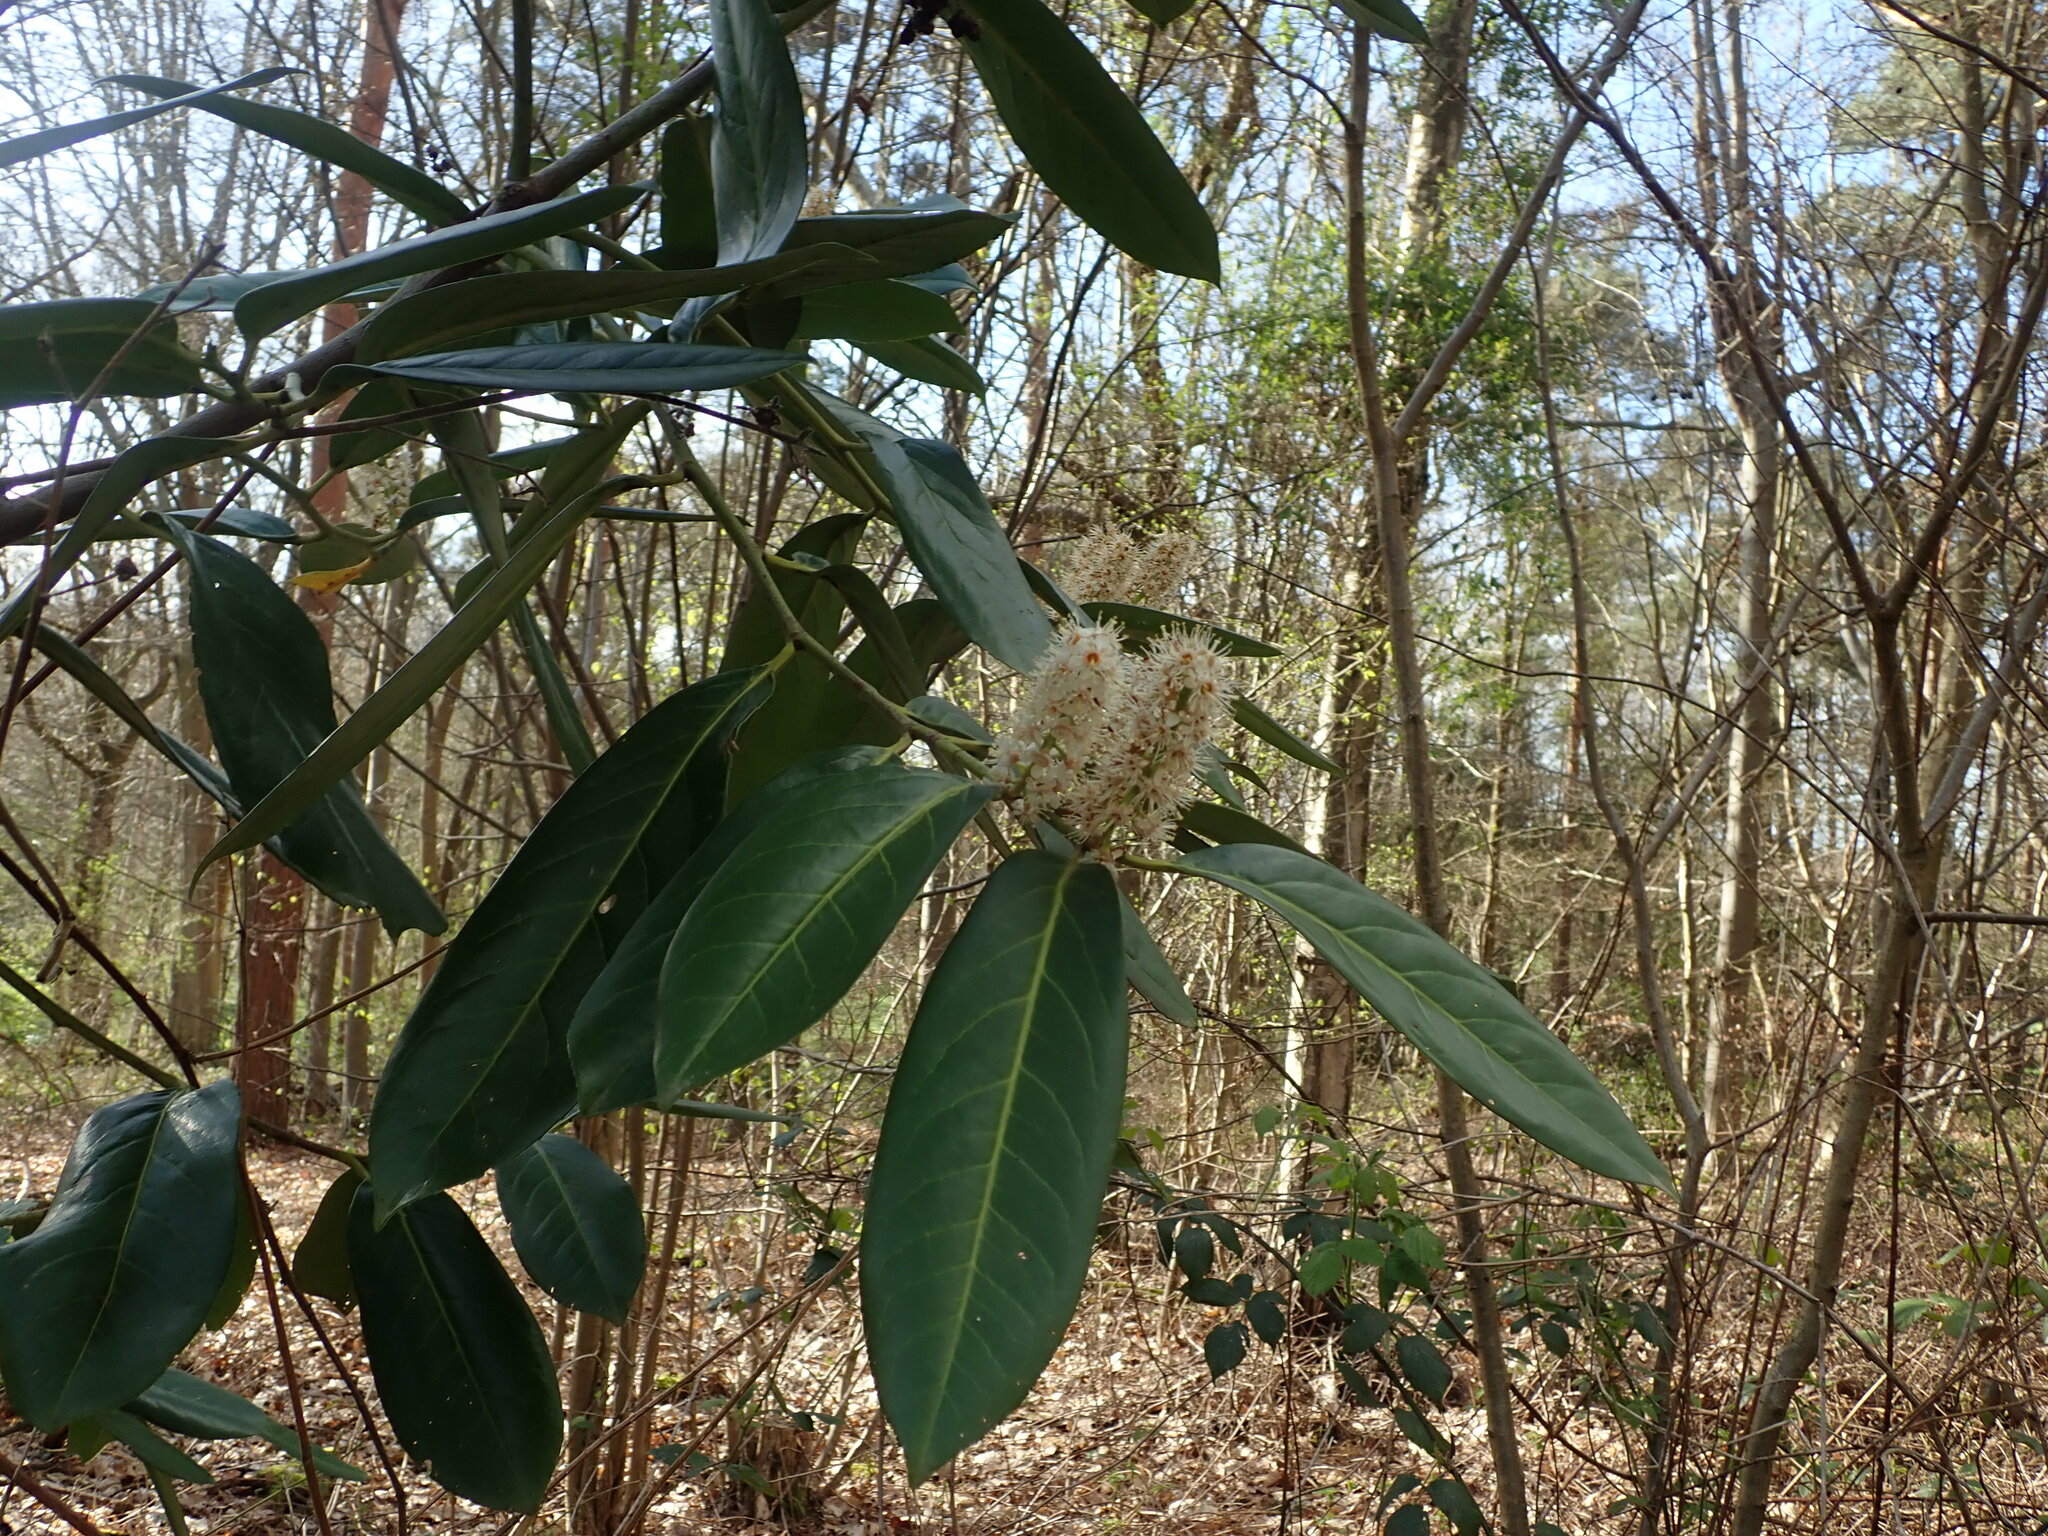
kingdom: Plantae
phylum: Tracheophyta
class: Magnoliopsida
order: Rosales
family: Rosaceae
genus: Prunus
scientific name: Prunus laurocerasus
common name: Cherry laurel
